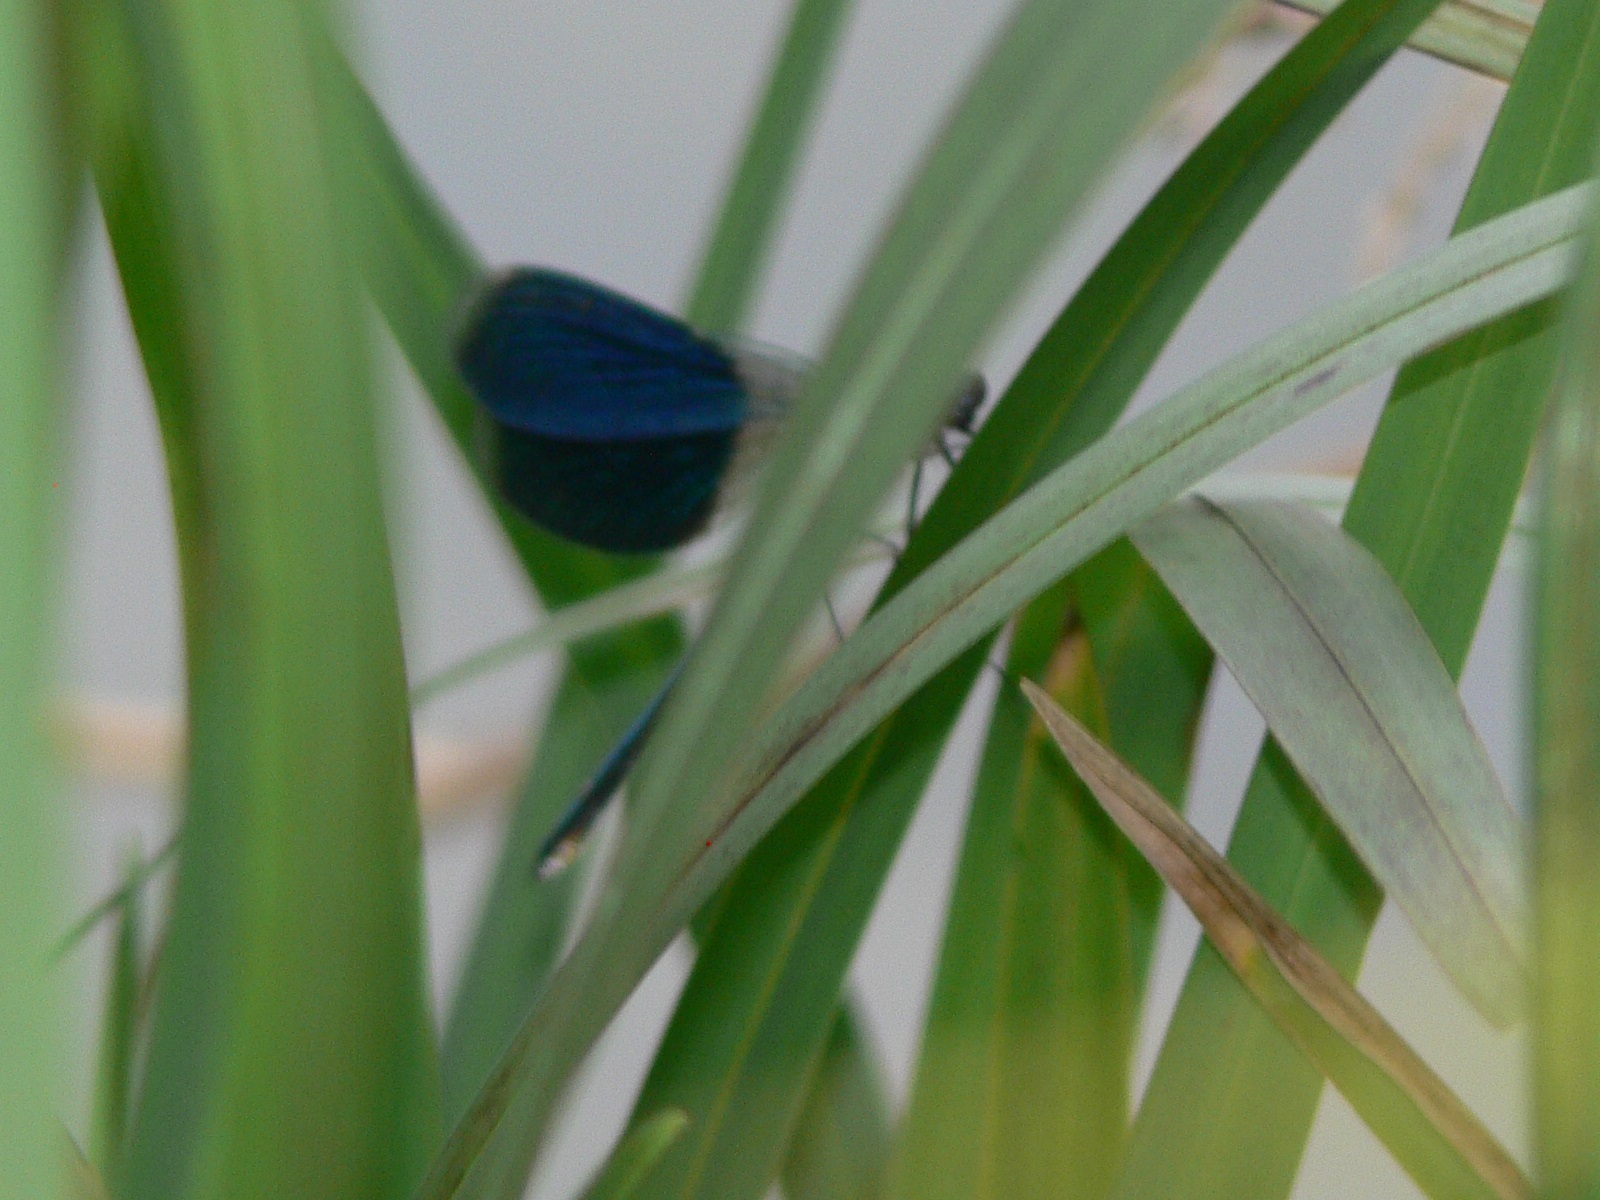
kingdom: Animalia
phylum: Arthropoda
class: Insecta
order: Odonata
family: Calopterygidae
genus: Calopteryx
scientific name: Calopteryx splendens
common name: Banded demoiselle
